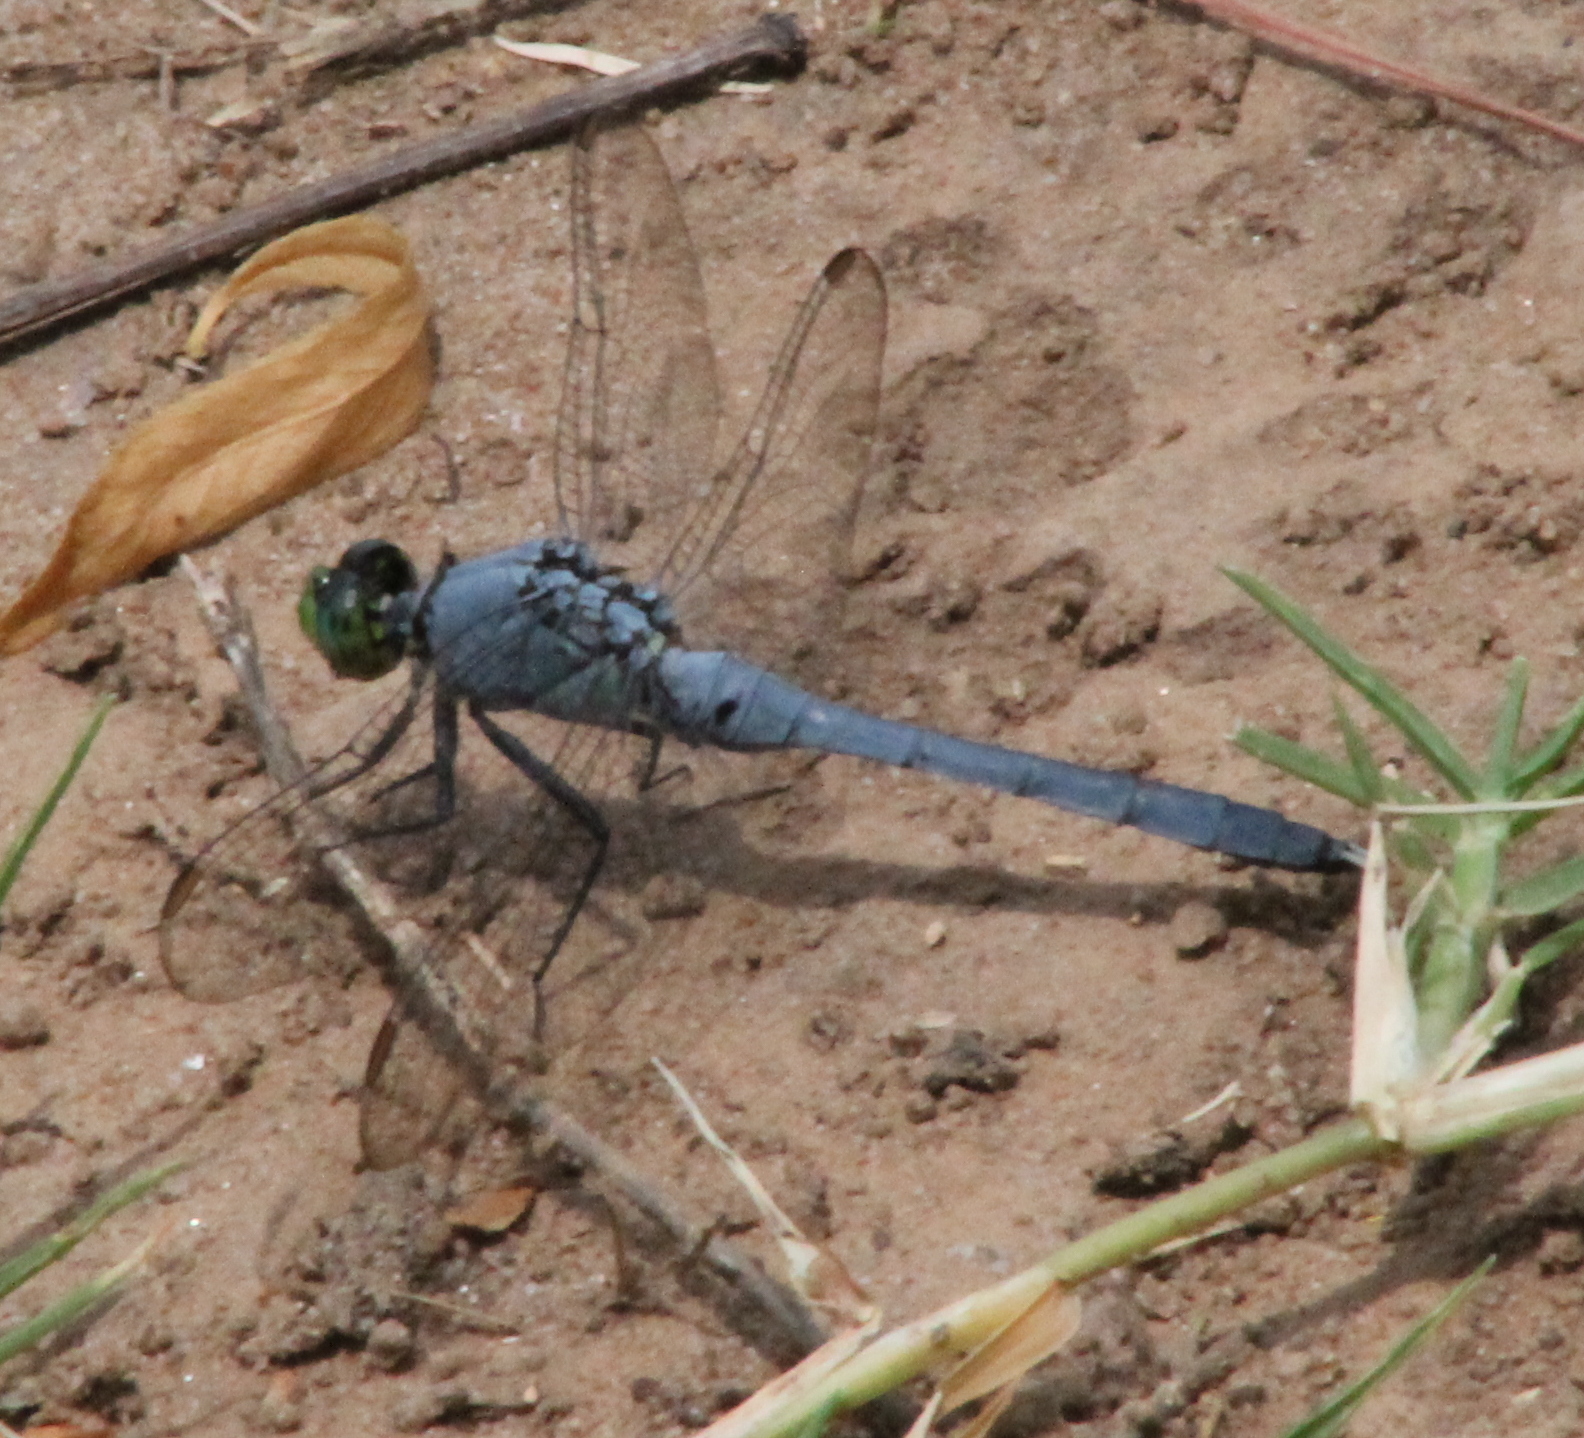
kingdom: Animalia
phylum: Arthropoda
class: Insecta
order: Odonata
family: Libellulidae
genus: Erythemis
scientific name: Erythemis simplicicollis
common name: Eastern pondhawk
